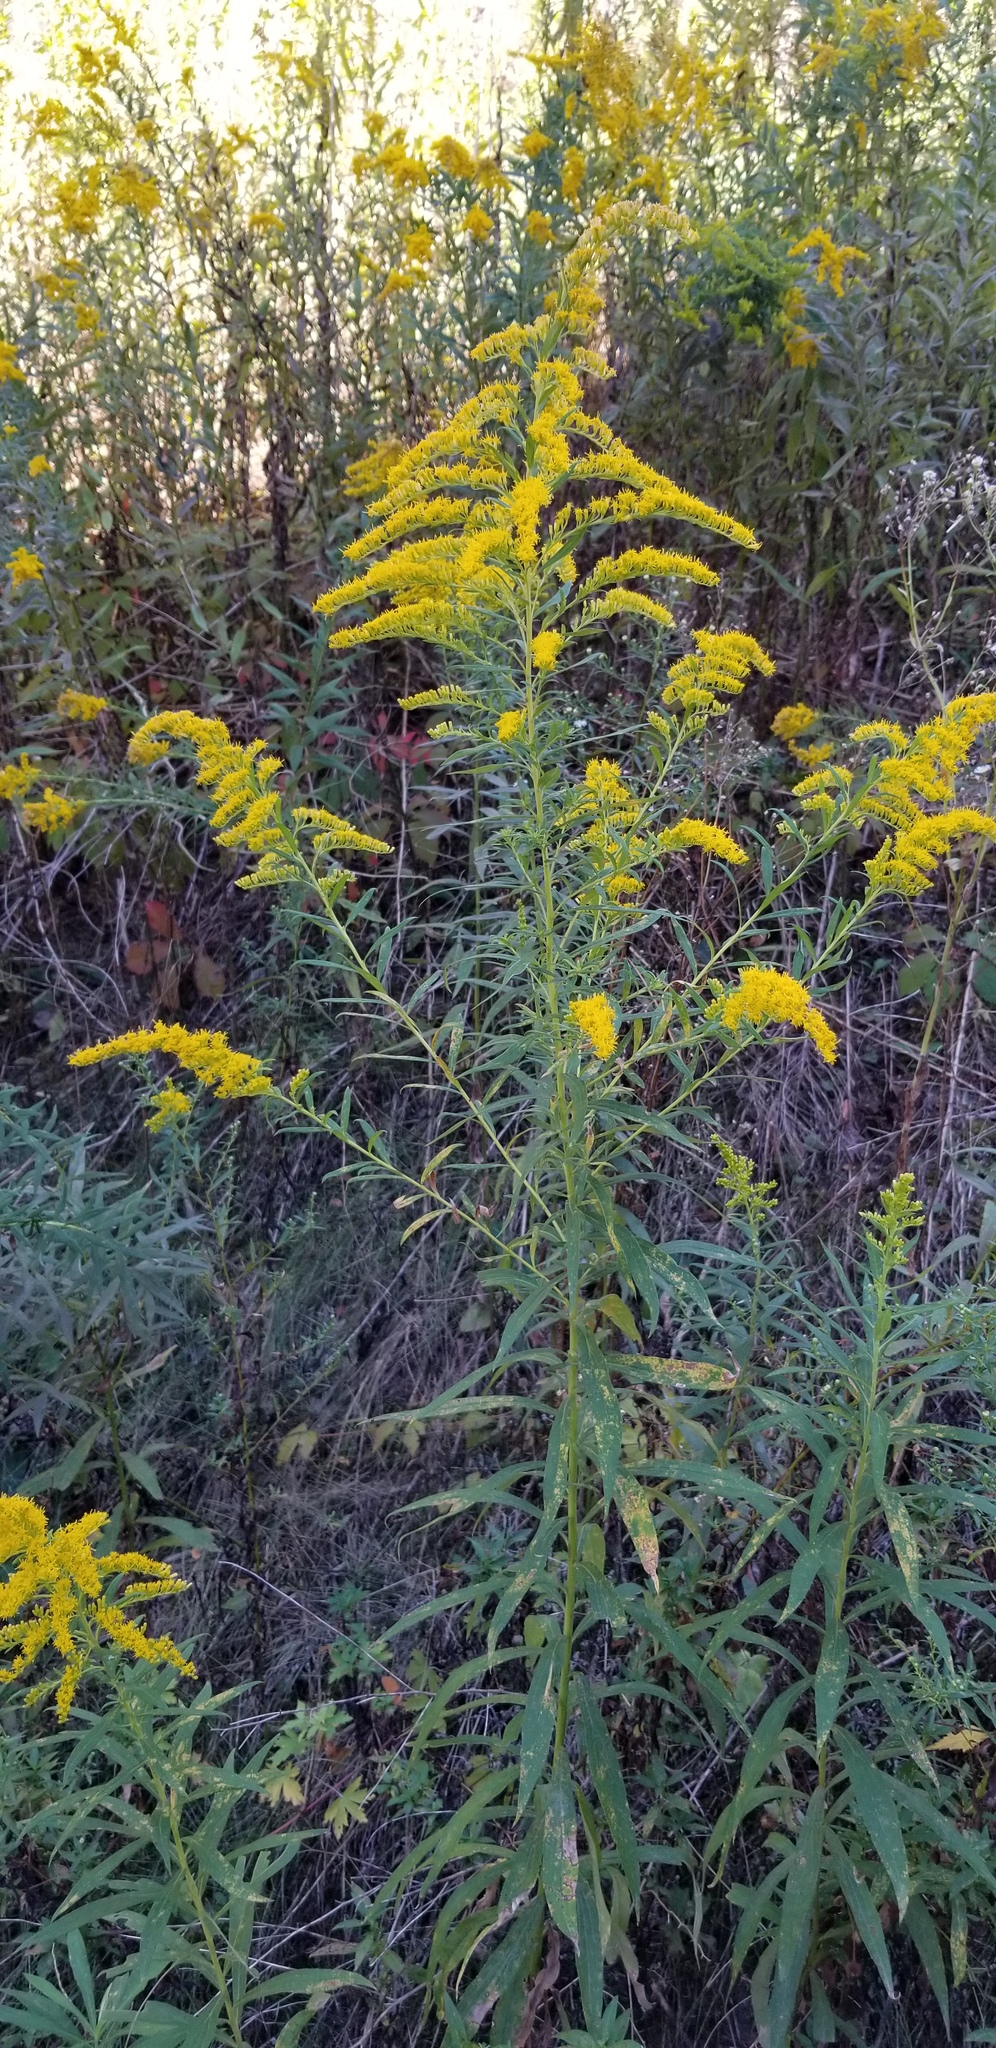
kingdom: Plantae
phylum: Tracheophyta
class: Magnoliopsida
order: Asterales
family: Asteraceae
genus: Solidago
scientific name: Solidago altissima
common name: Late goldenrod
